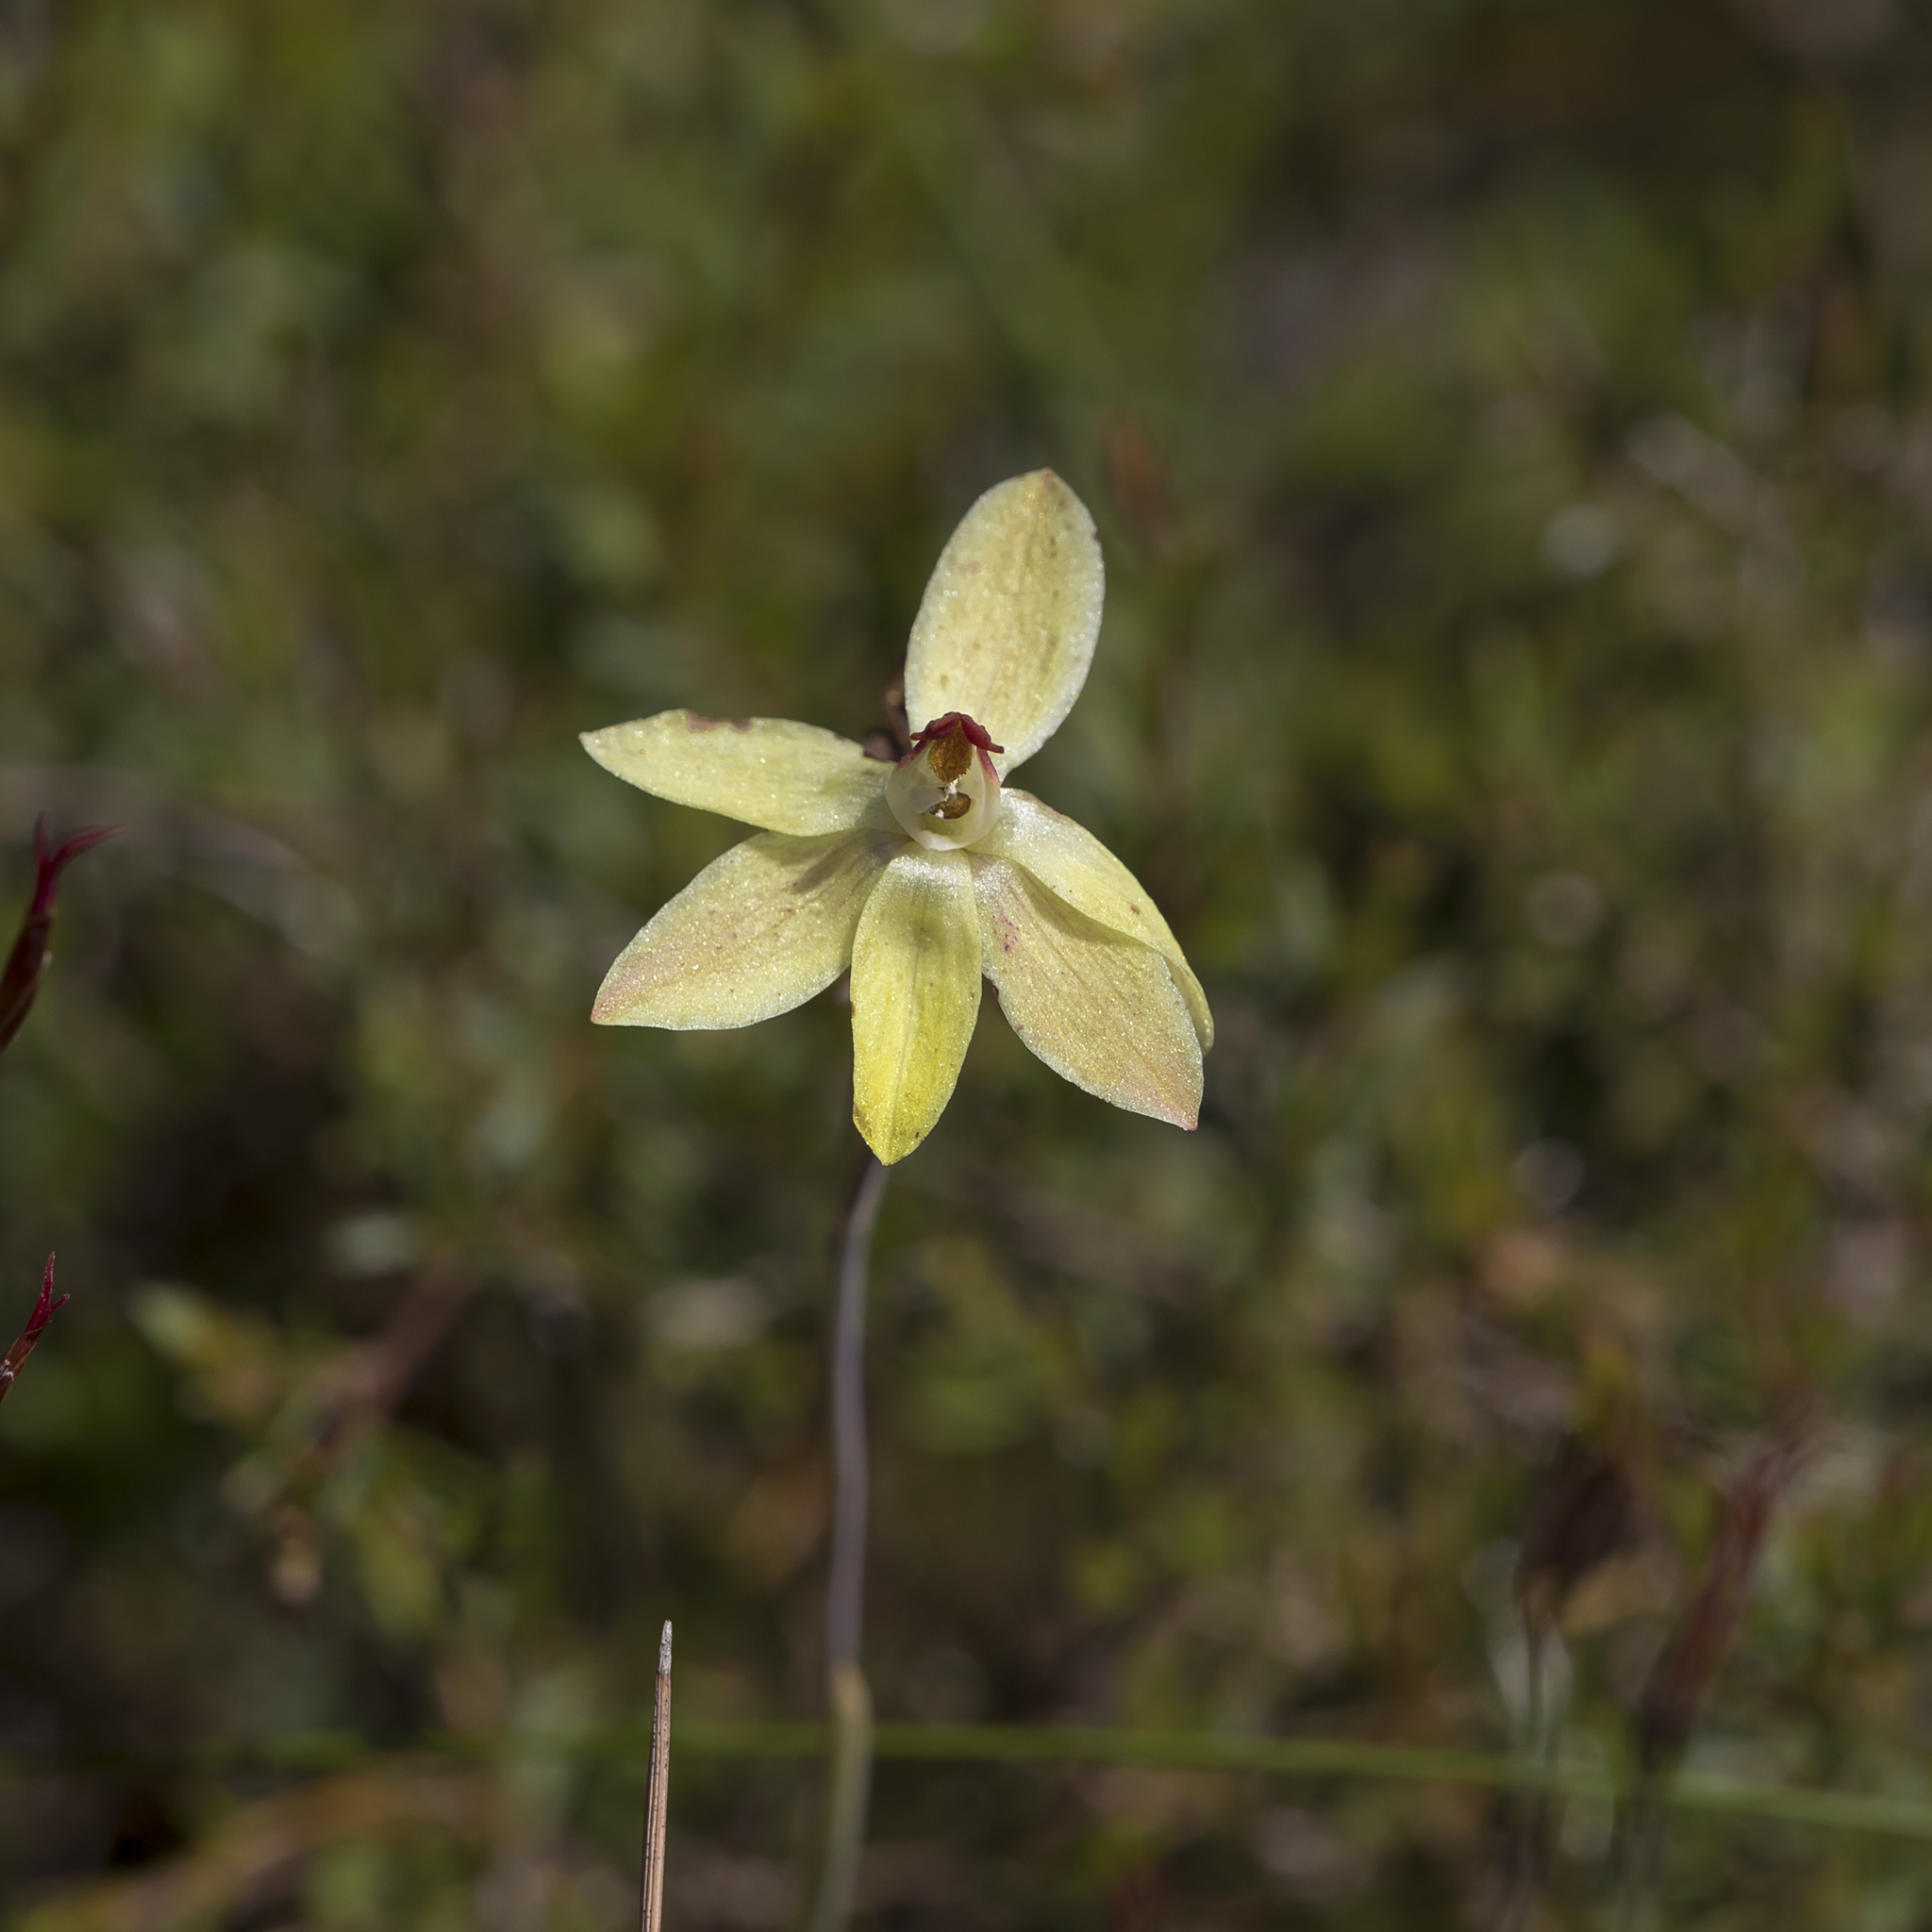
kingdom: Plantae
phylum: Tracheophyta
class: Liliopsida
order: Asparagales
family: Orchidaceae
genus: Thelymitra
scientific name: Thelymitra antennifera
